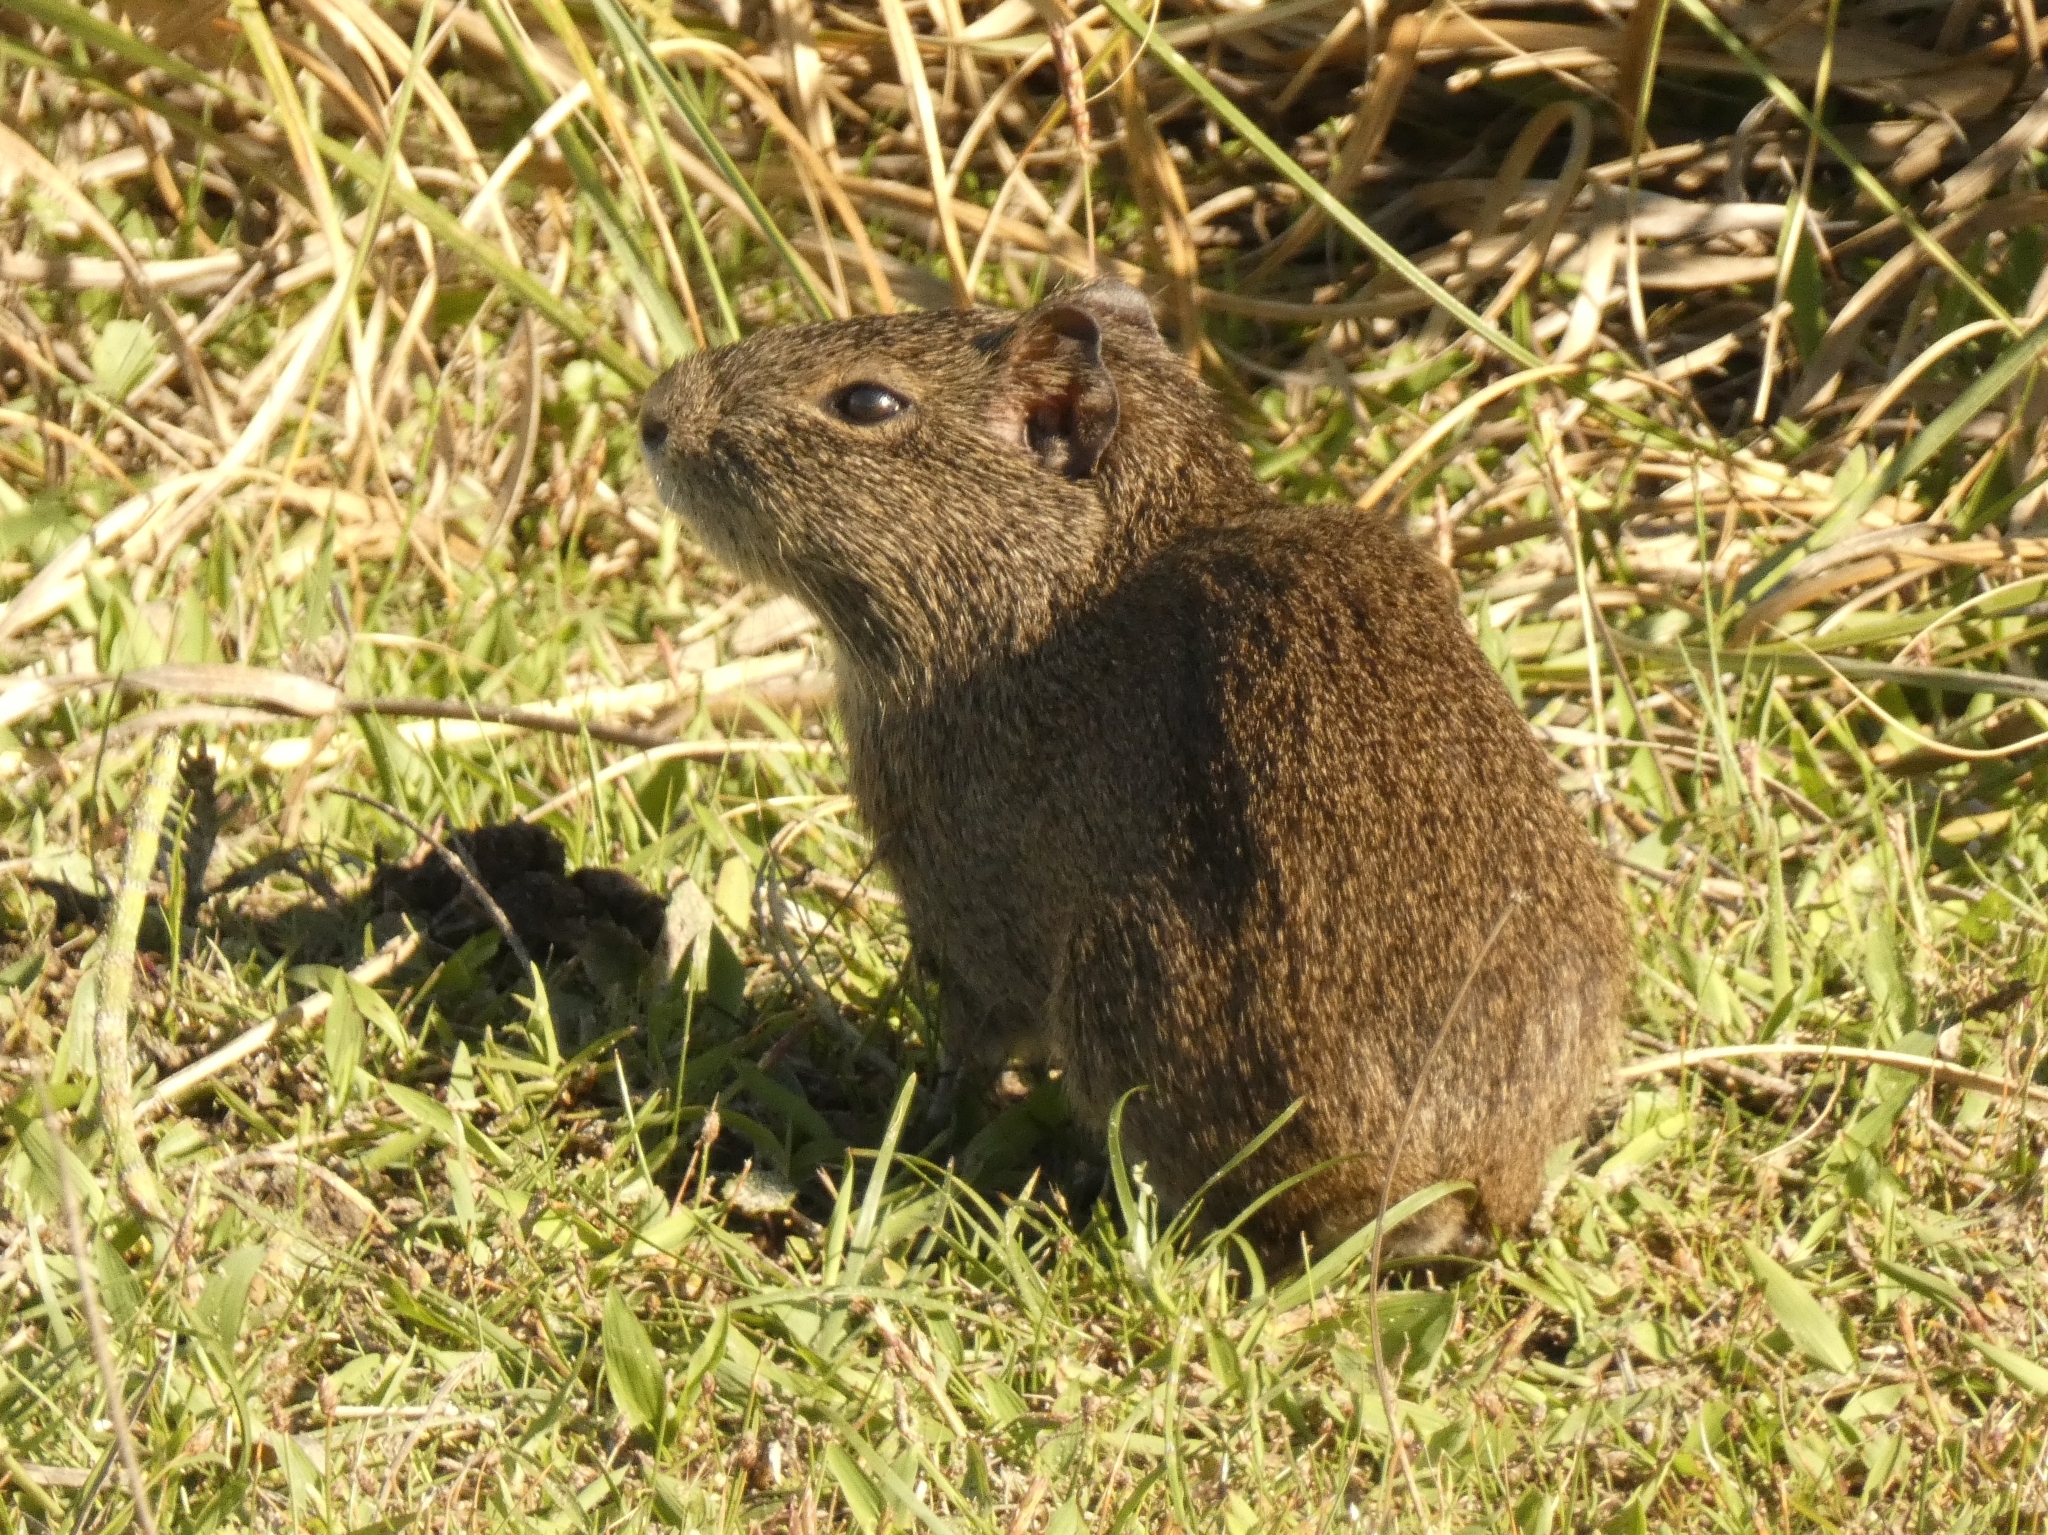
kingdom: Animalia
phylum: Chordata
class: Mammalia
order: Rodentia
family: Caviidae
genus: Cavia
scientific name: Cavia aperea
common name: Brazilian guinea pig
